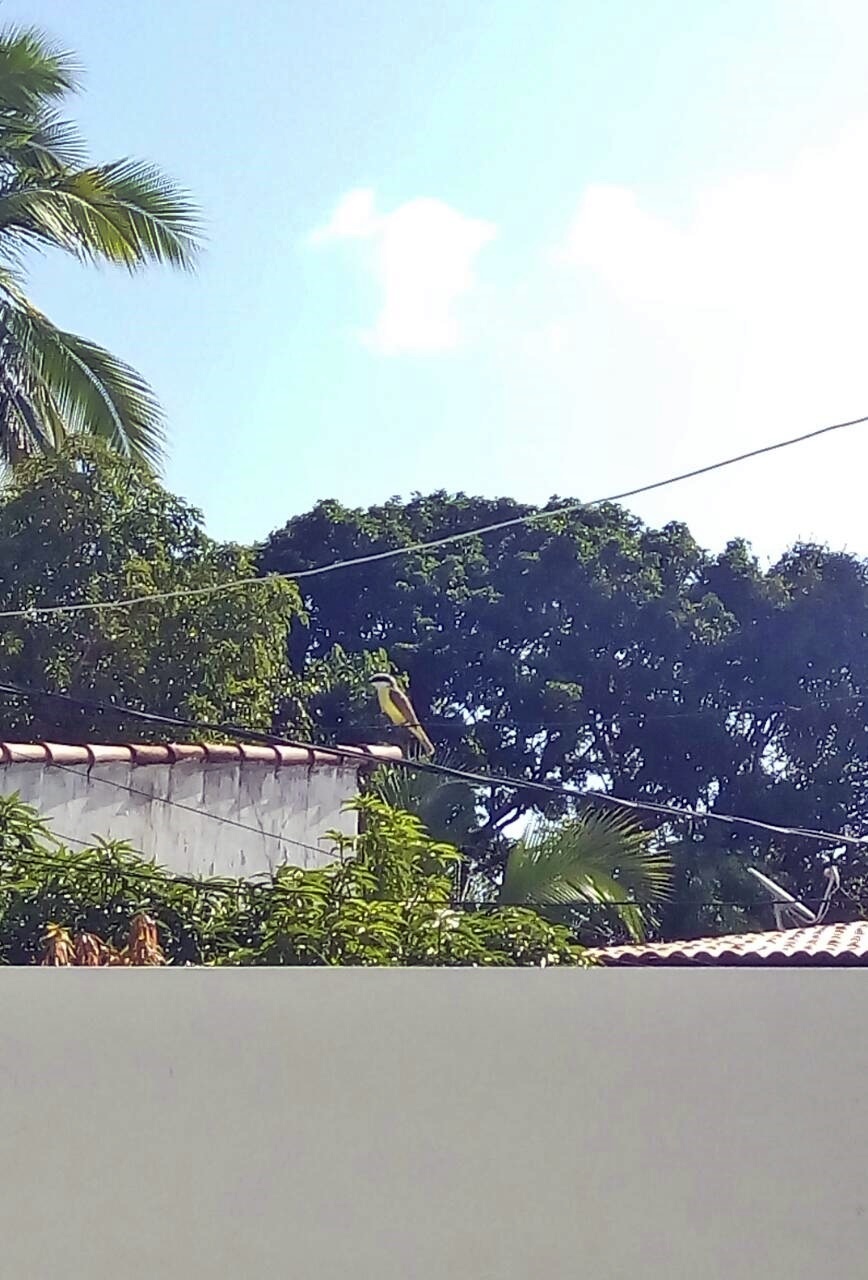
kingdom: Animalia
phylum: Chordata
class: Aves
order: Passeriformes
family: Tyrannidae
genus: Pitangus
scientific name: Pitangus sulphuratus
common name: Great kiskadee
